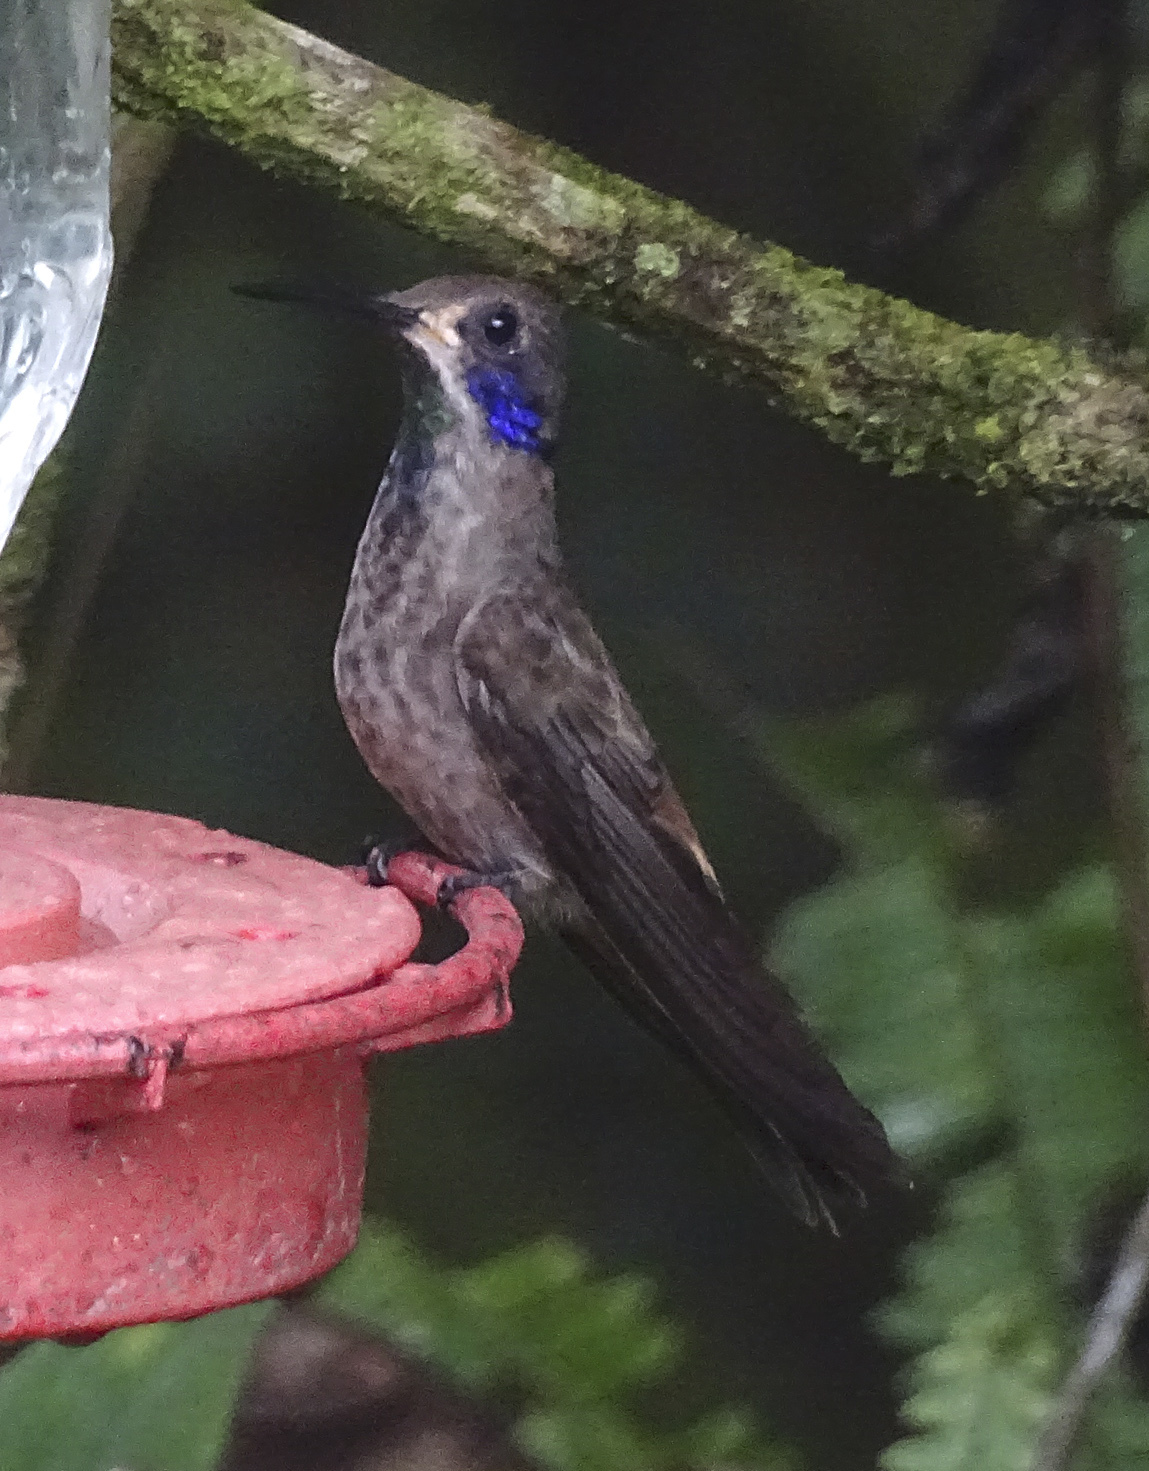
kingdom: Animalia
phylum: Chordata
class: Aves
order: Apodiformes
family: Trochilidae
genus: Colibri
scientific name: Colibri delphinae
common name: Brown violetear
